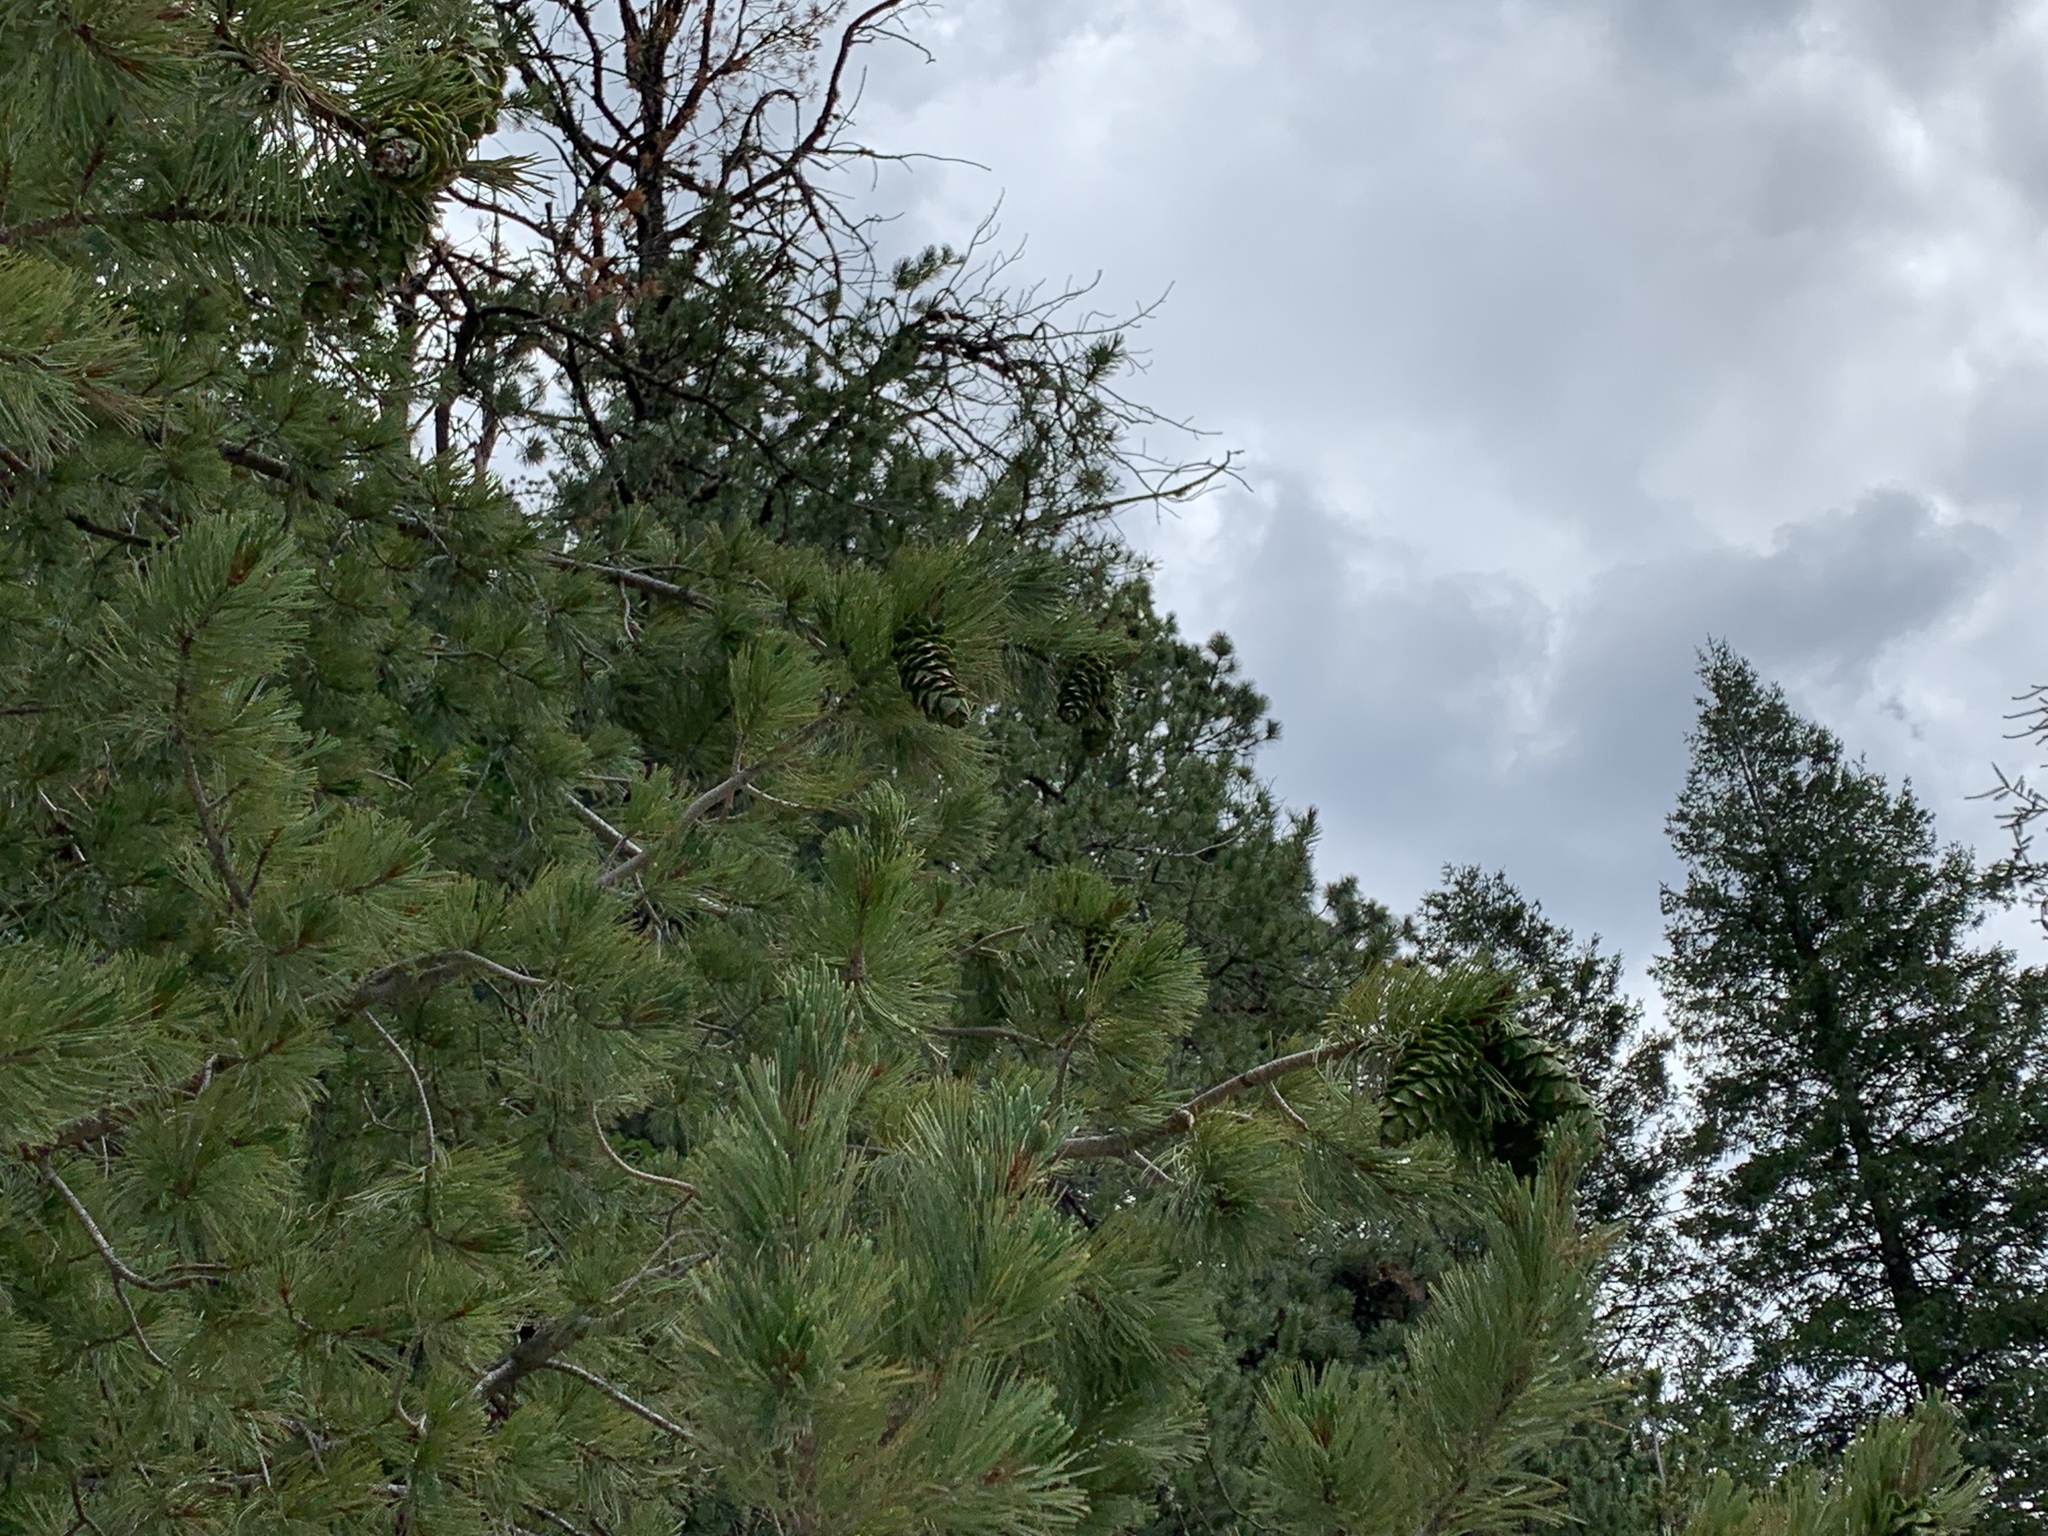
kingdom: Plantae
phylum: Tracheophyta
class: Pinopsida
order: Pinales
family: Pinaceae
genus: Pinus
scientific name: Pinus strobiformis
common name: Southwestern white pine
